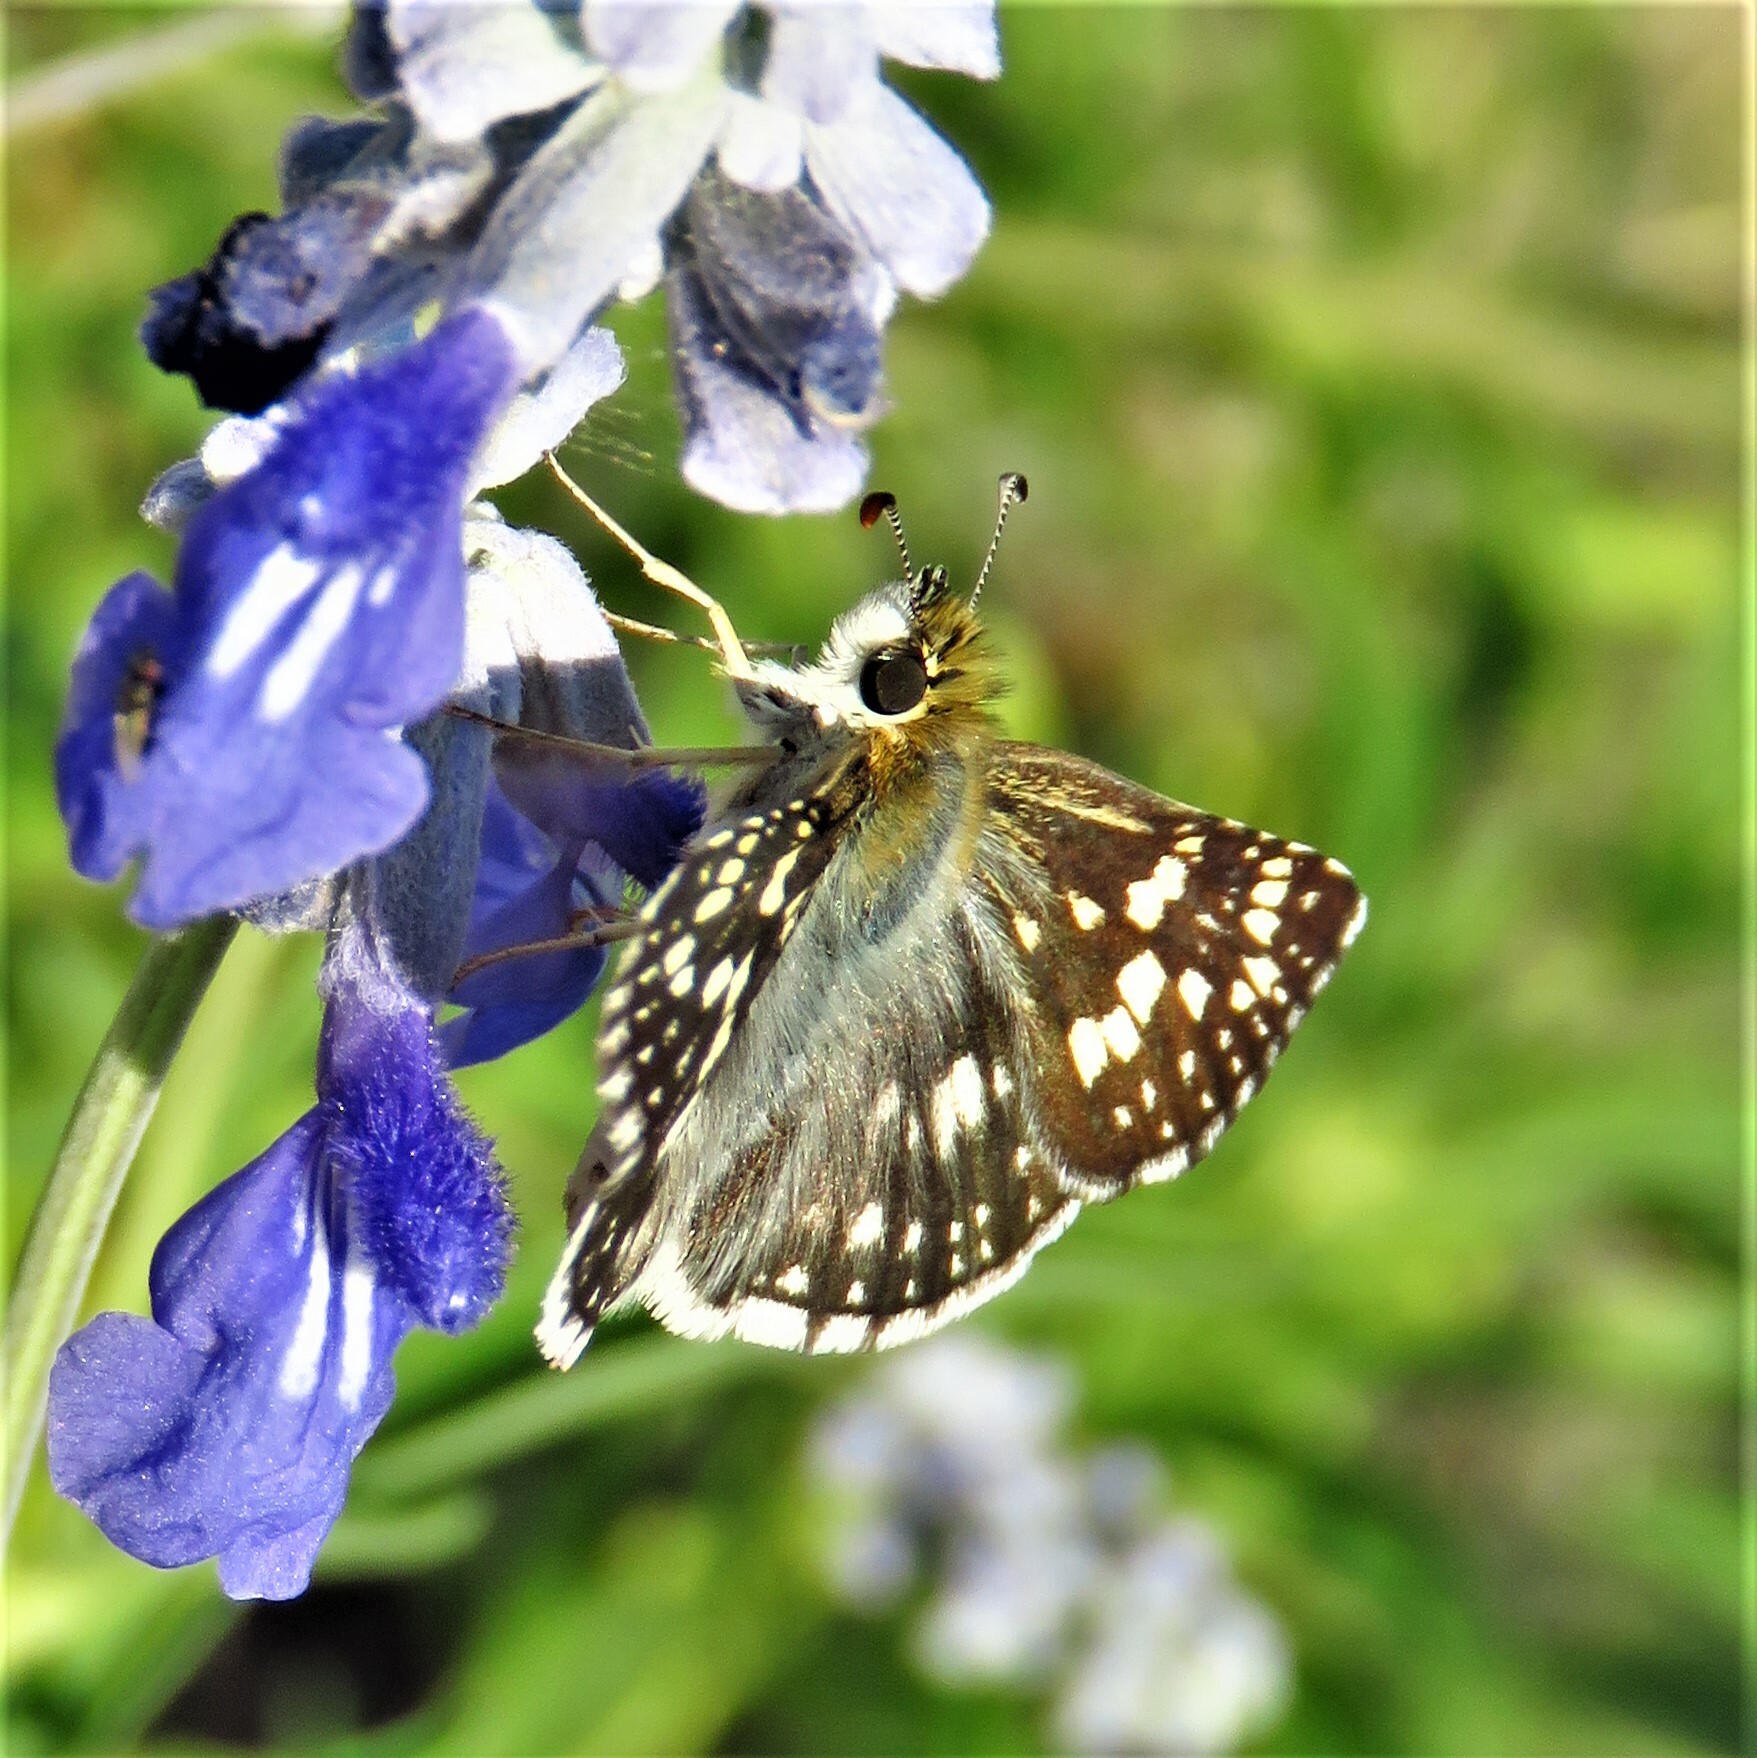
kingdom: Animalia
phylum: Arthropoda
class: Insecta
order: Lepidoptera
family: Hesperiidae
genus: Burnsius
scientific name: Burnsius
